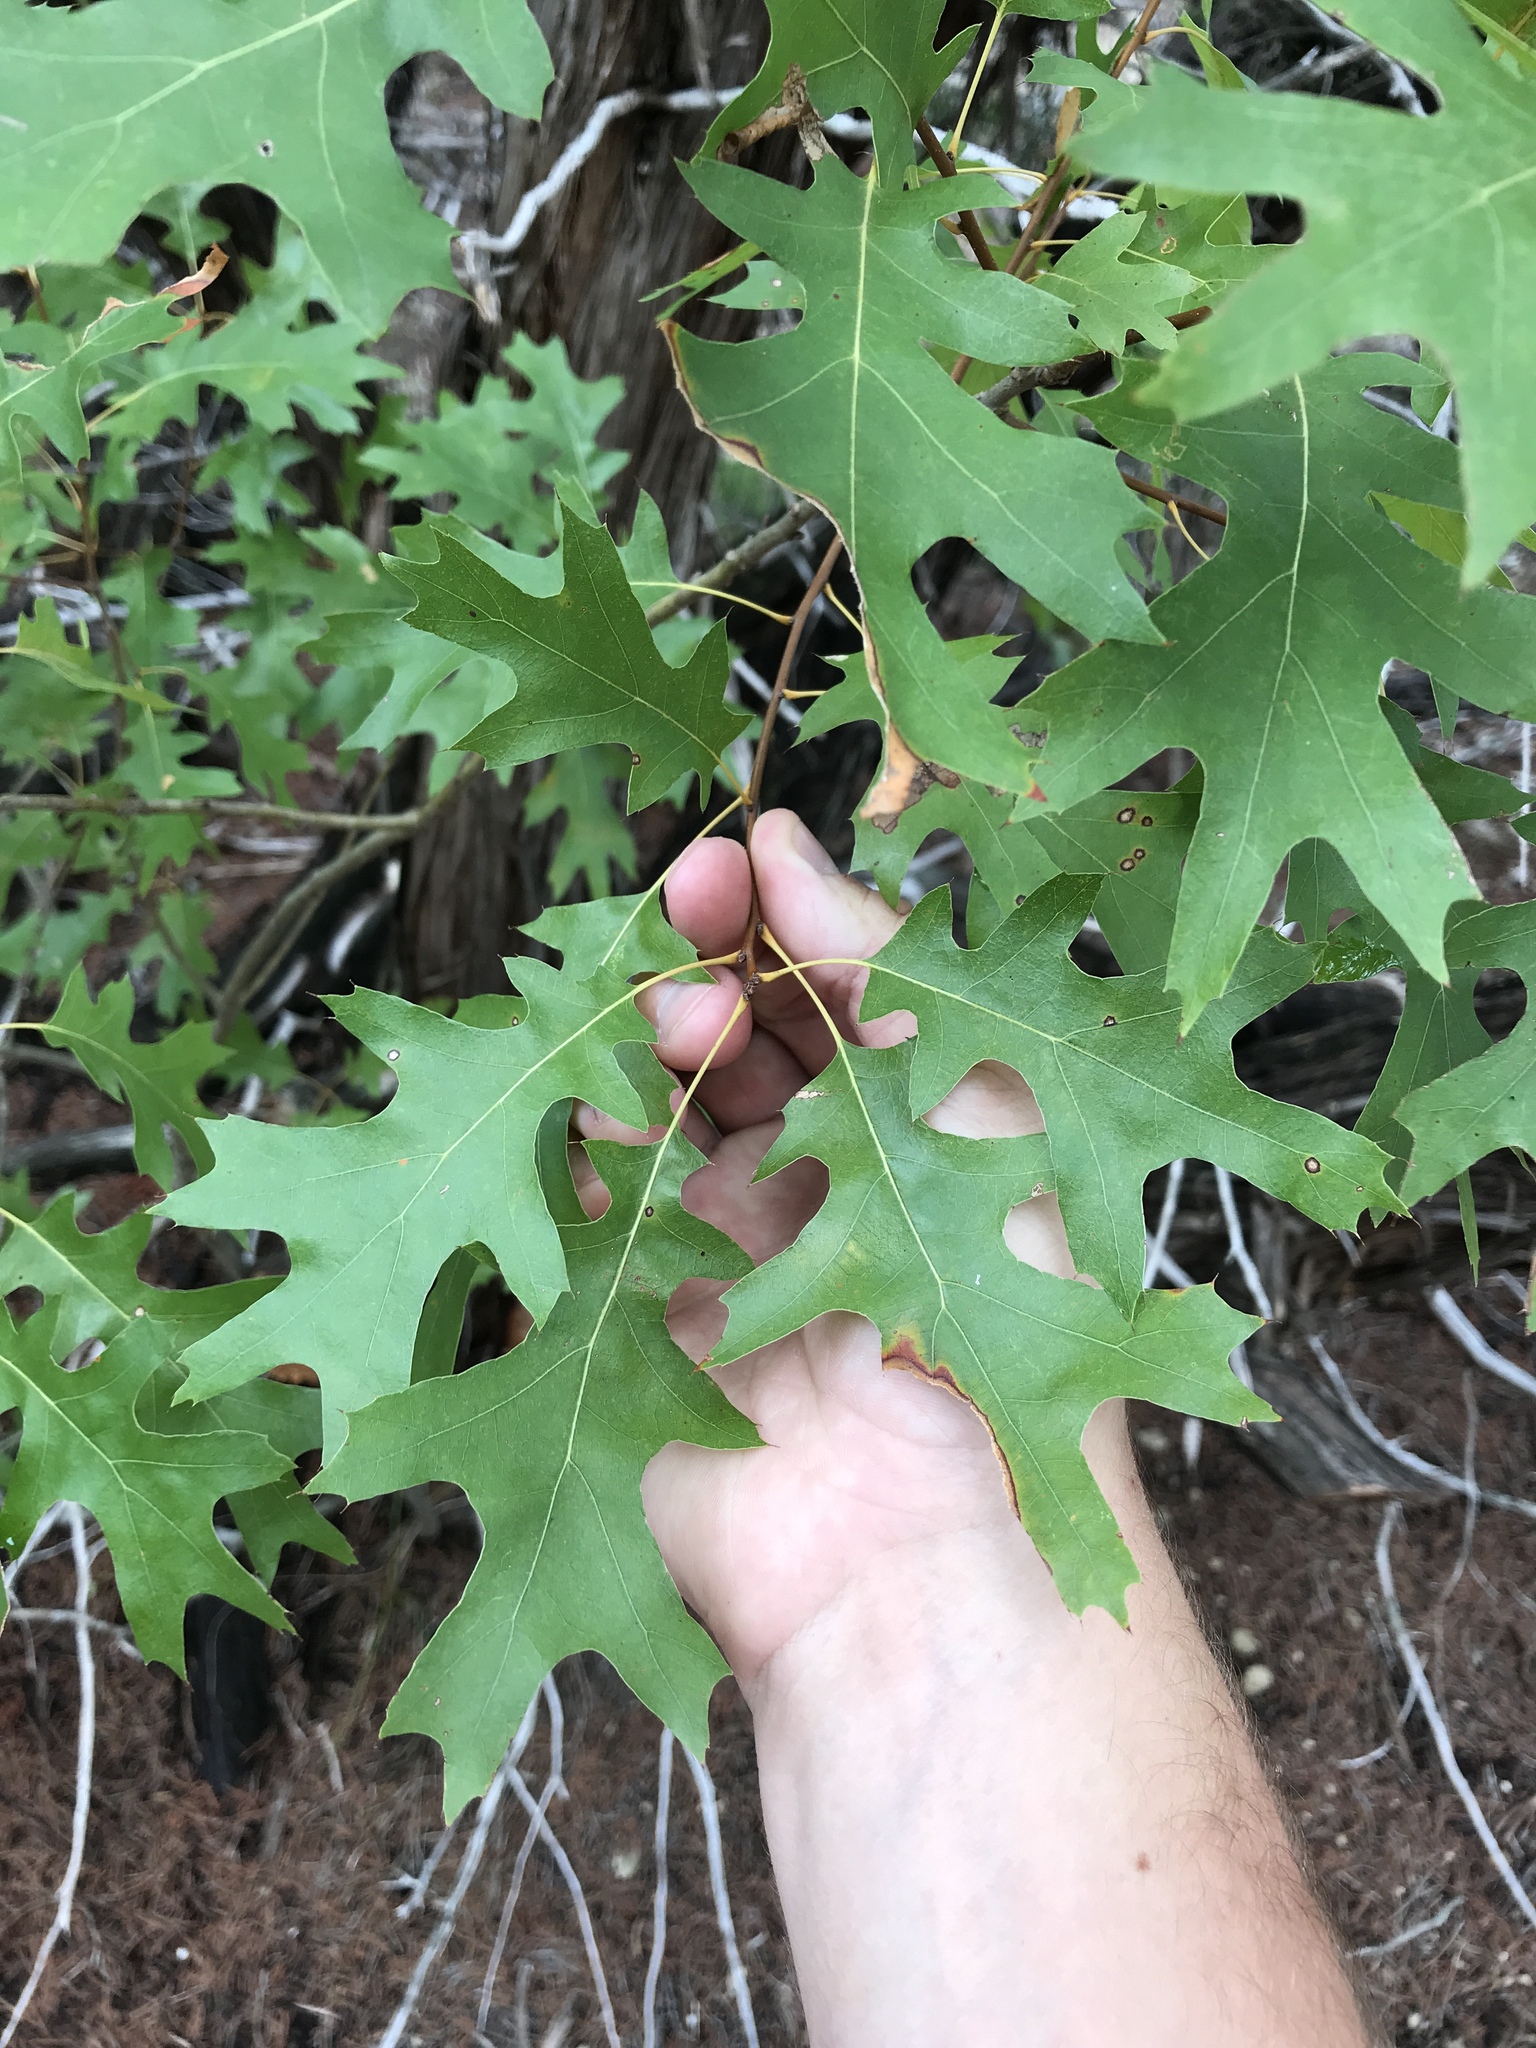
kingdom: Plantae
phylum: Tracheophyta
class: Magnoliopsida
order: Fagales
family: Fagaceae
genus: Quercus
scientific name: Quercus buckleyi
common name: Buckley oak
